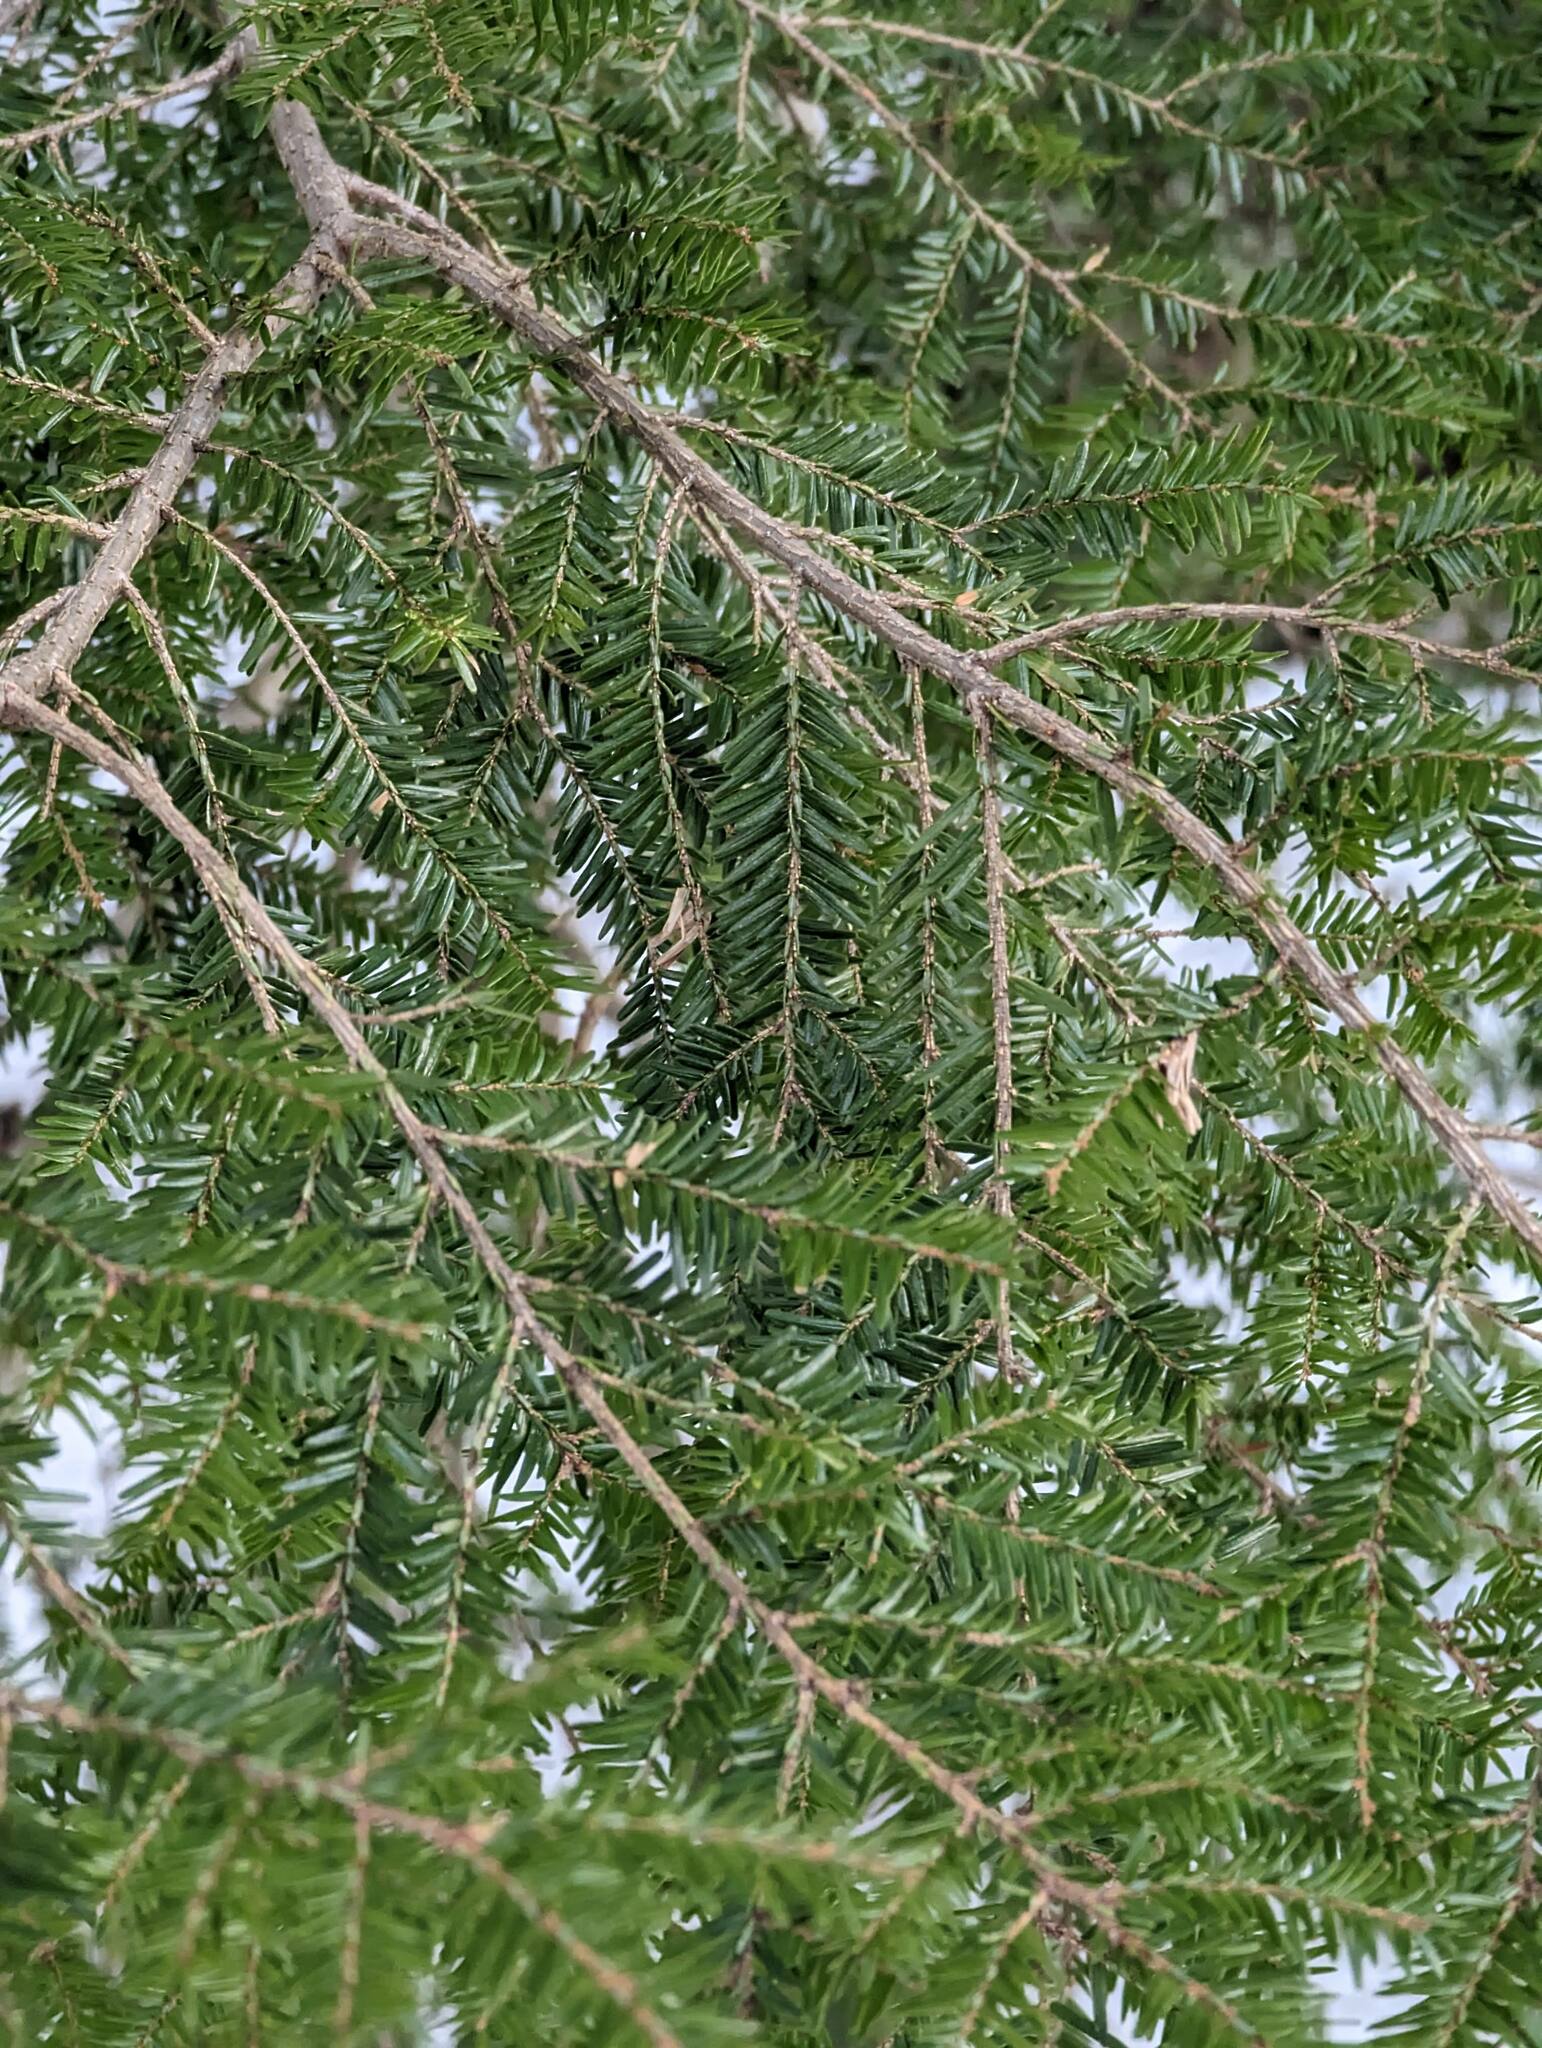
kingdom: Plantae
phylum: Tracheophyta
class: Pinopsida
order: Pinales
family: Pinaceae
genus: Tsuga
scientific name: Tsuga canadensis
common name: Eastern hemlock
